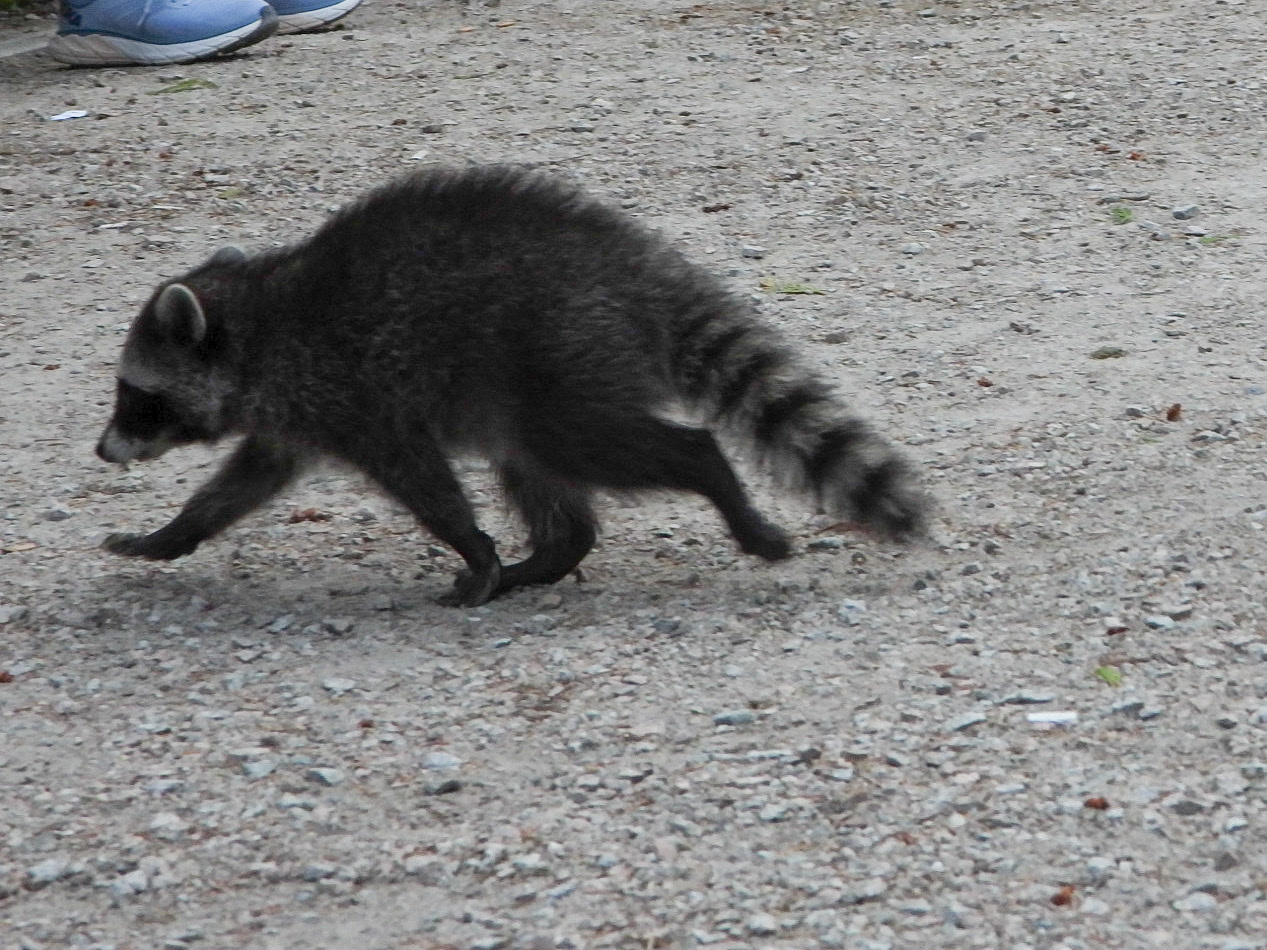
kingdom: Animalia
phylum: Chordata
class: Mammalia
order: Carnivora
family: Procyonidae
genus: Procyon
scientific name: Procyon lotor
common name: Raccoon
